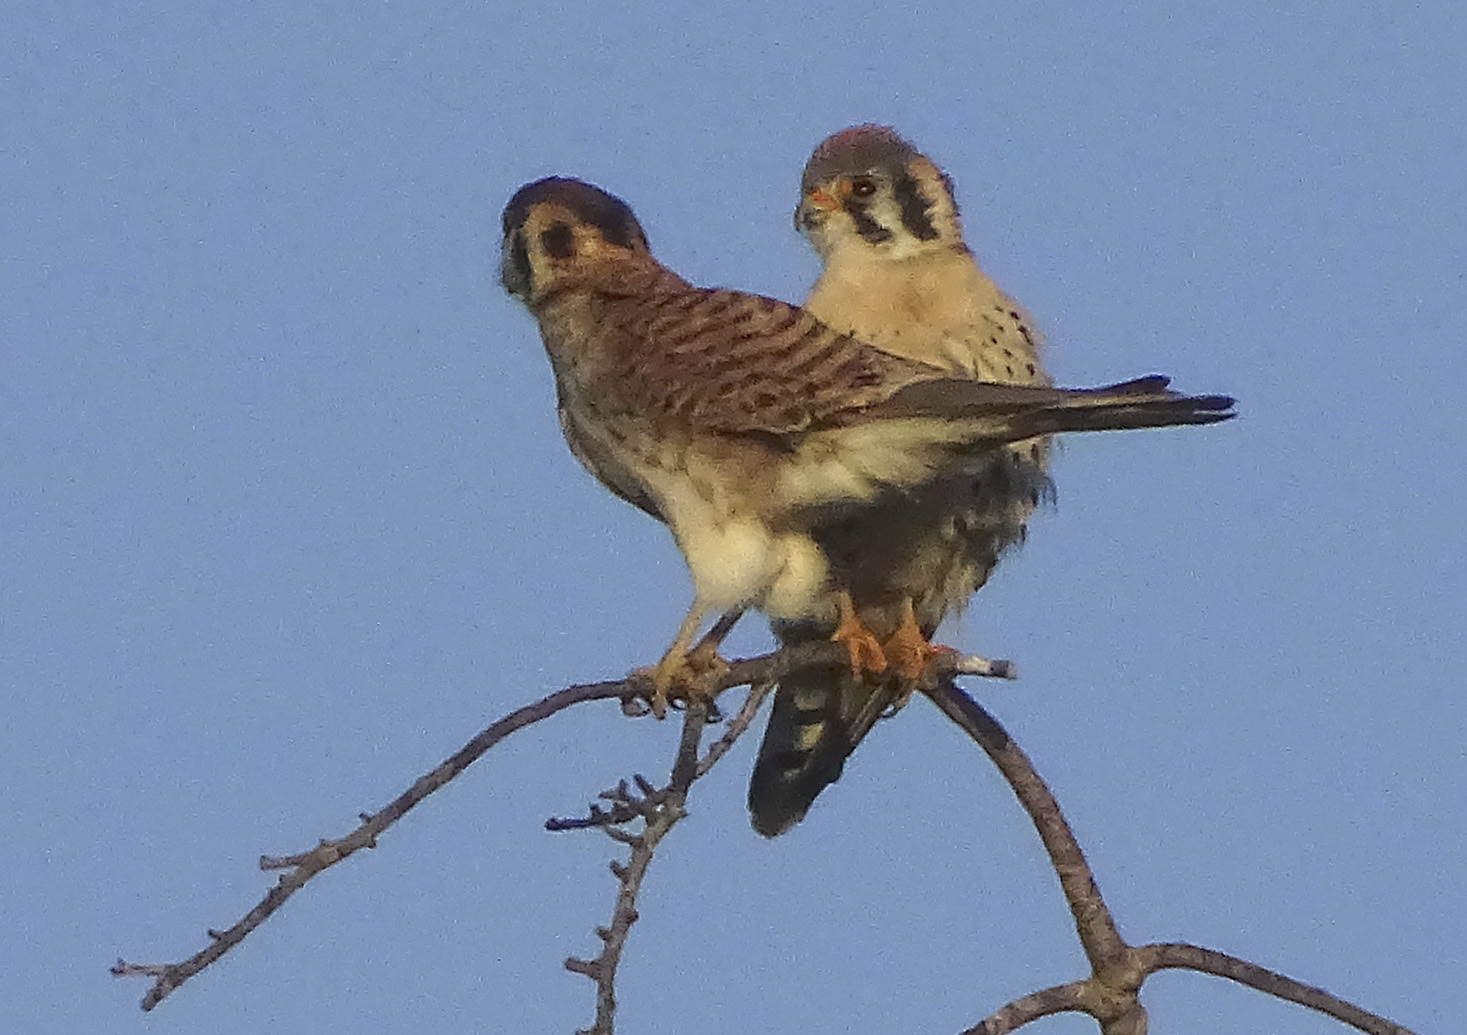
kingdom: Animalia
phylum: Chordata
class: Aves
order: Falconiformes
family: Falconidae
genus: Falco
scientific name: Falco sparverius
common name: American kestrel
